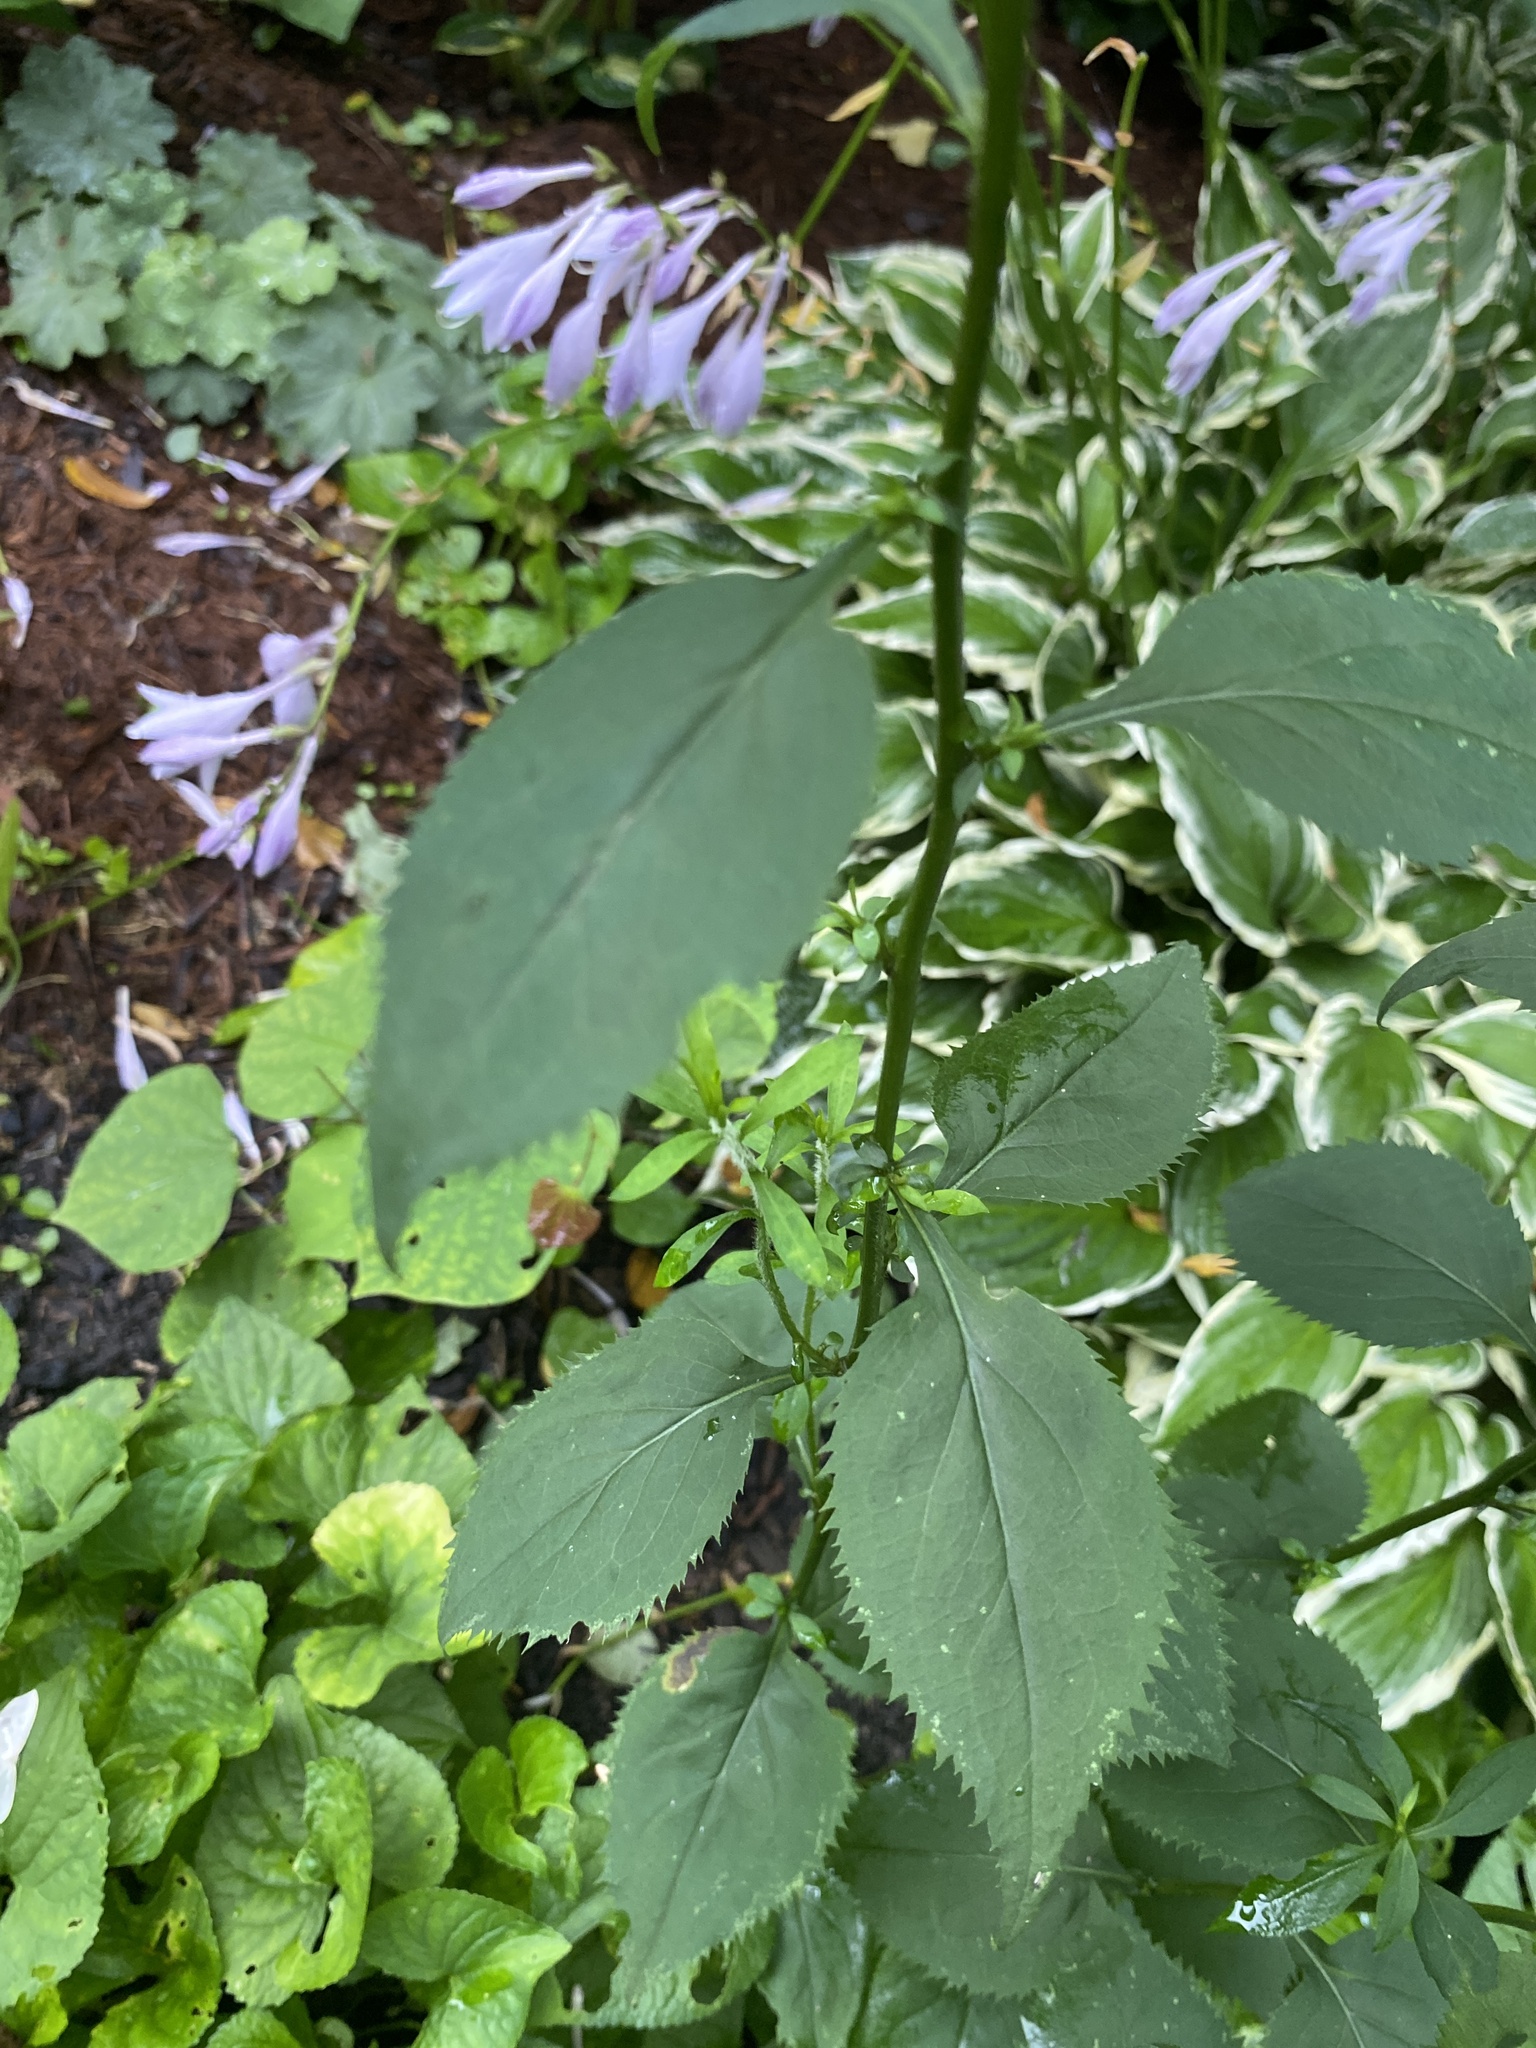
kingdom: Plantae
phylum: Tracheophyta
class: Magnoliopsida
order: Asterales
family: Asteraceae
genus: Solidago
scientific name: Solidago flexicaulis
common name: Zig-zag goldenrod
